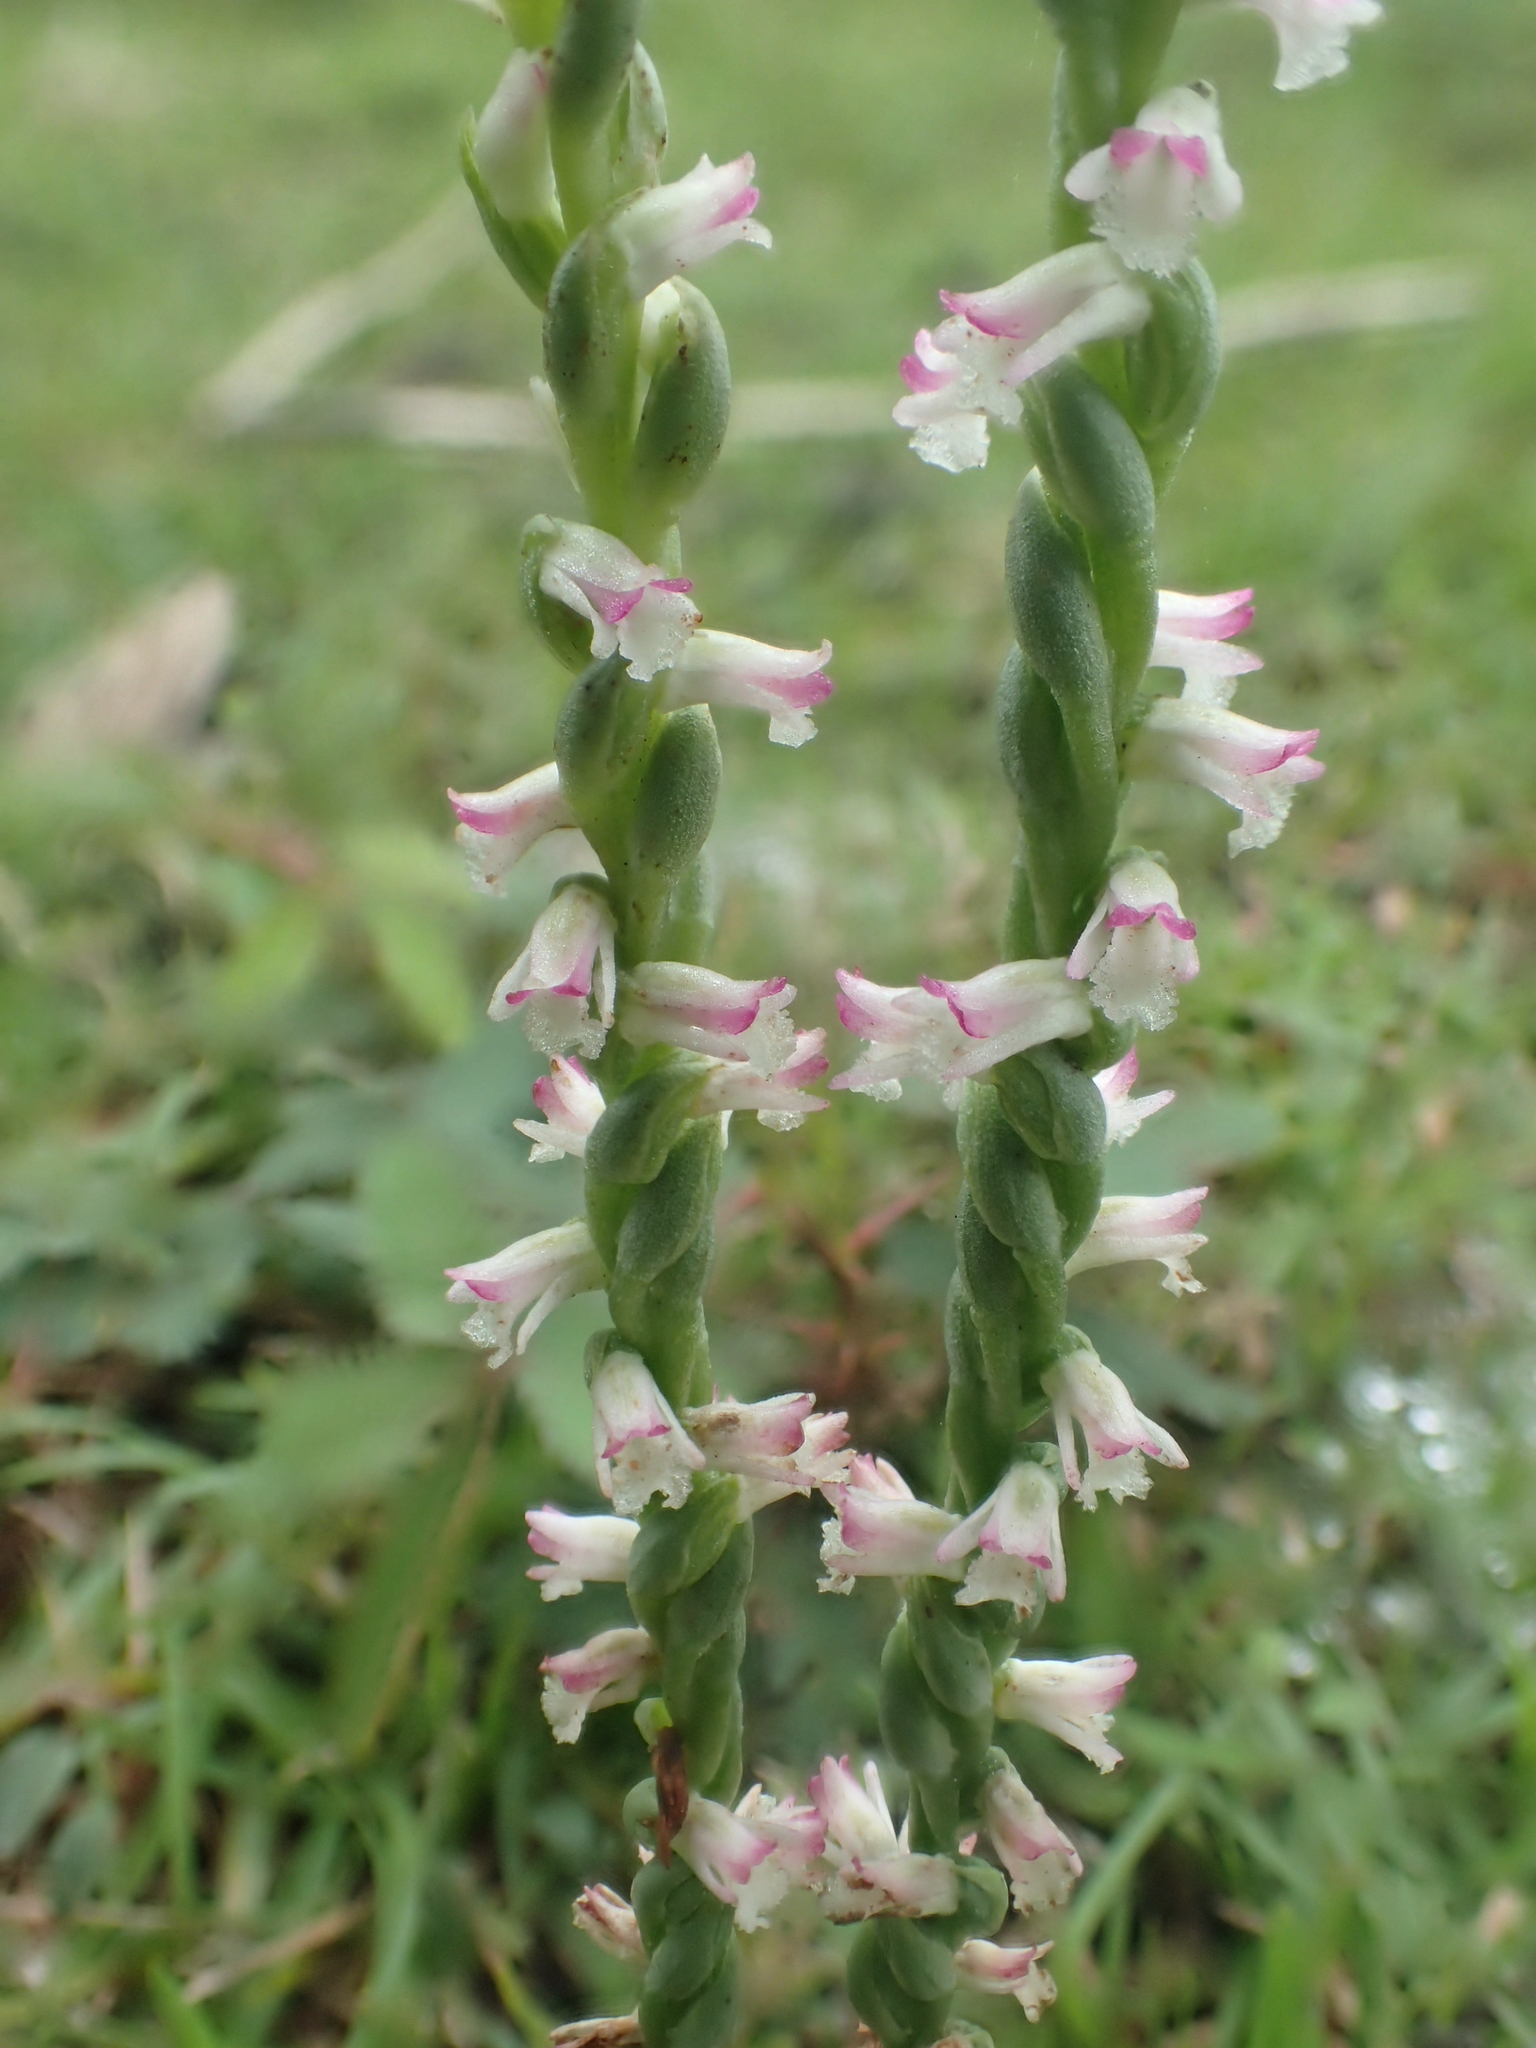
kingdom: Plantae
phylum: Tracheophyta
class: Liliopsida
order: Asparagales
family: Orchidaceae
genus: Spiranthes
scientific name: Spiranthes sinensis
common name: Chinese spiranthes
